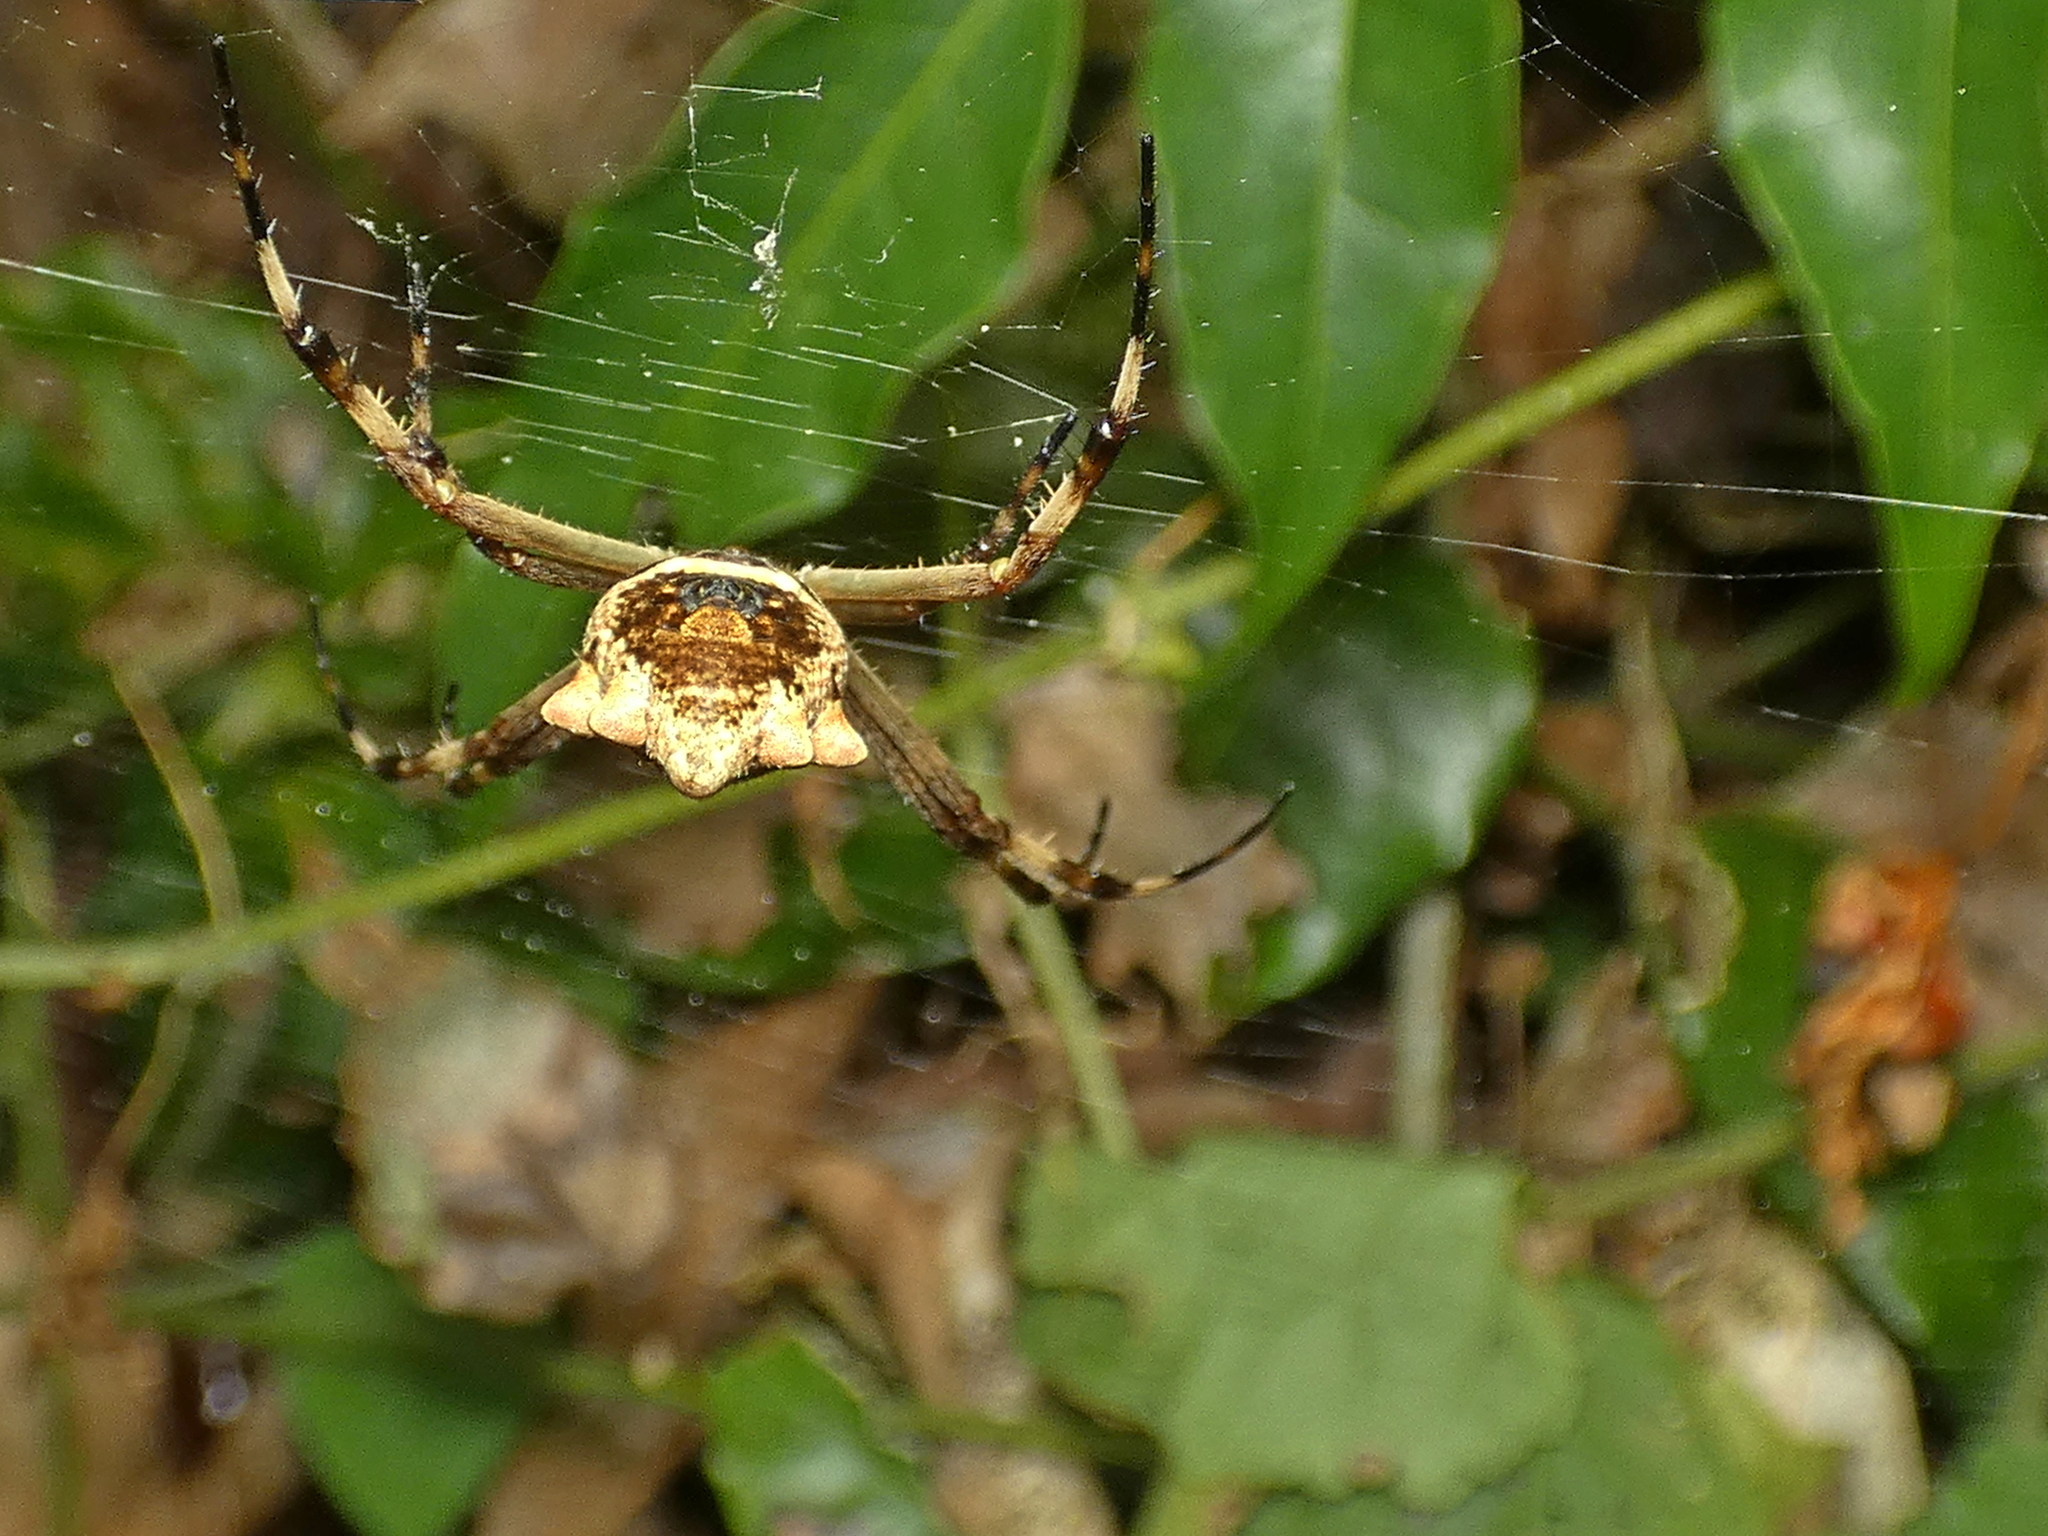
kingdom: Animalia
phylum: Arthropoda
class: Arachnida
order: Araneae
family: Araneidae
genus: Argiope
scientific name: Argiope argentata
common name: Orb weavers
